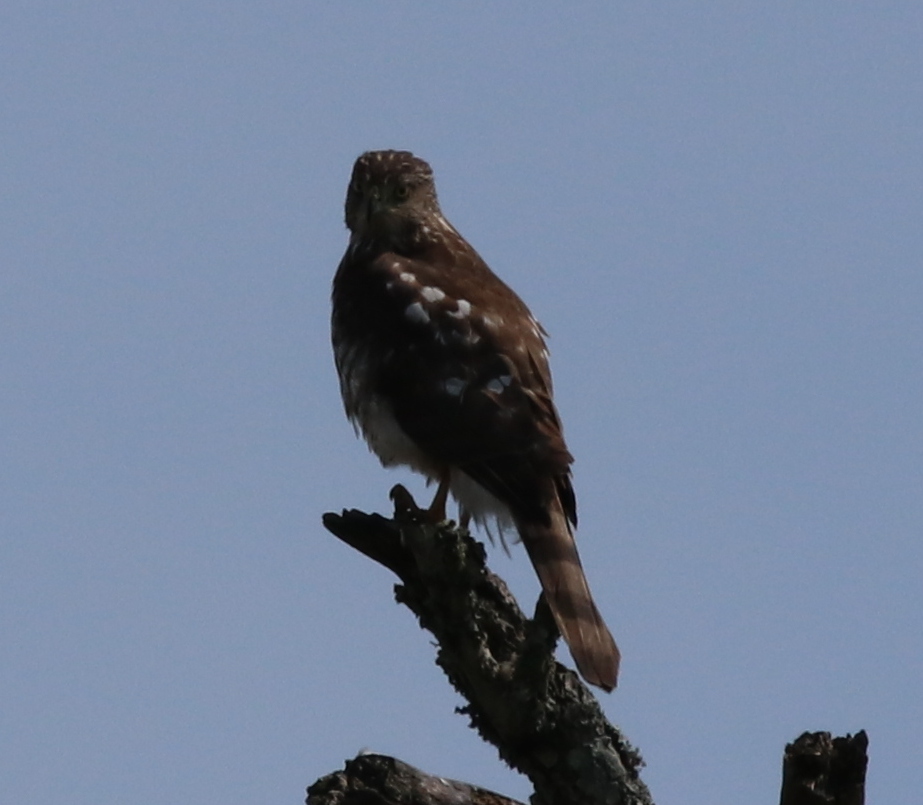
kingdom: Animalia
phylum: Chordata
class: Aves
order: Accipitriformes
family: Accipitridae
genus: Accipiter
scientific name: Accipiter cooperii
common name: Cooper's hawk
